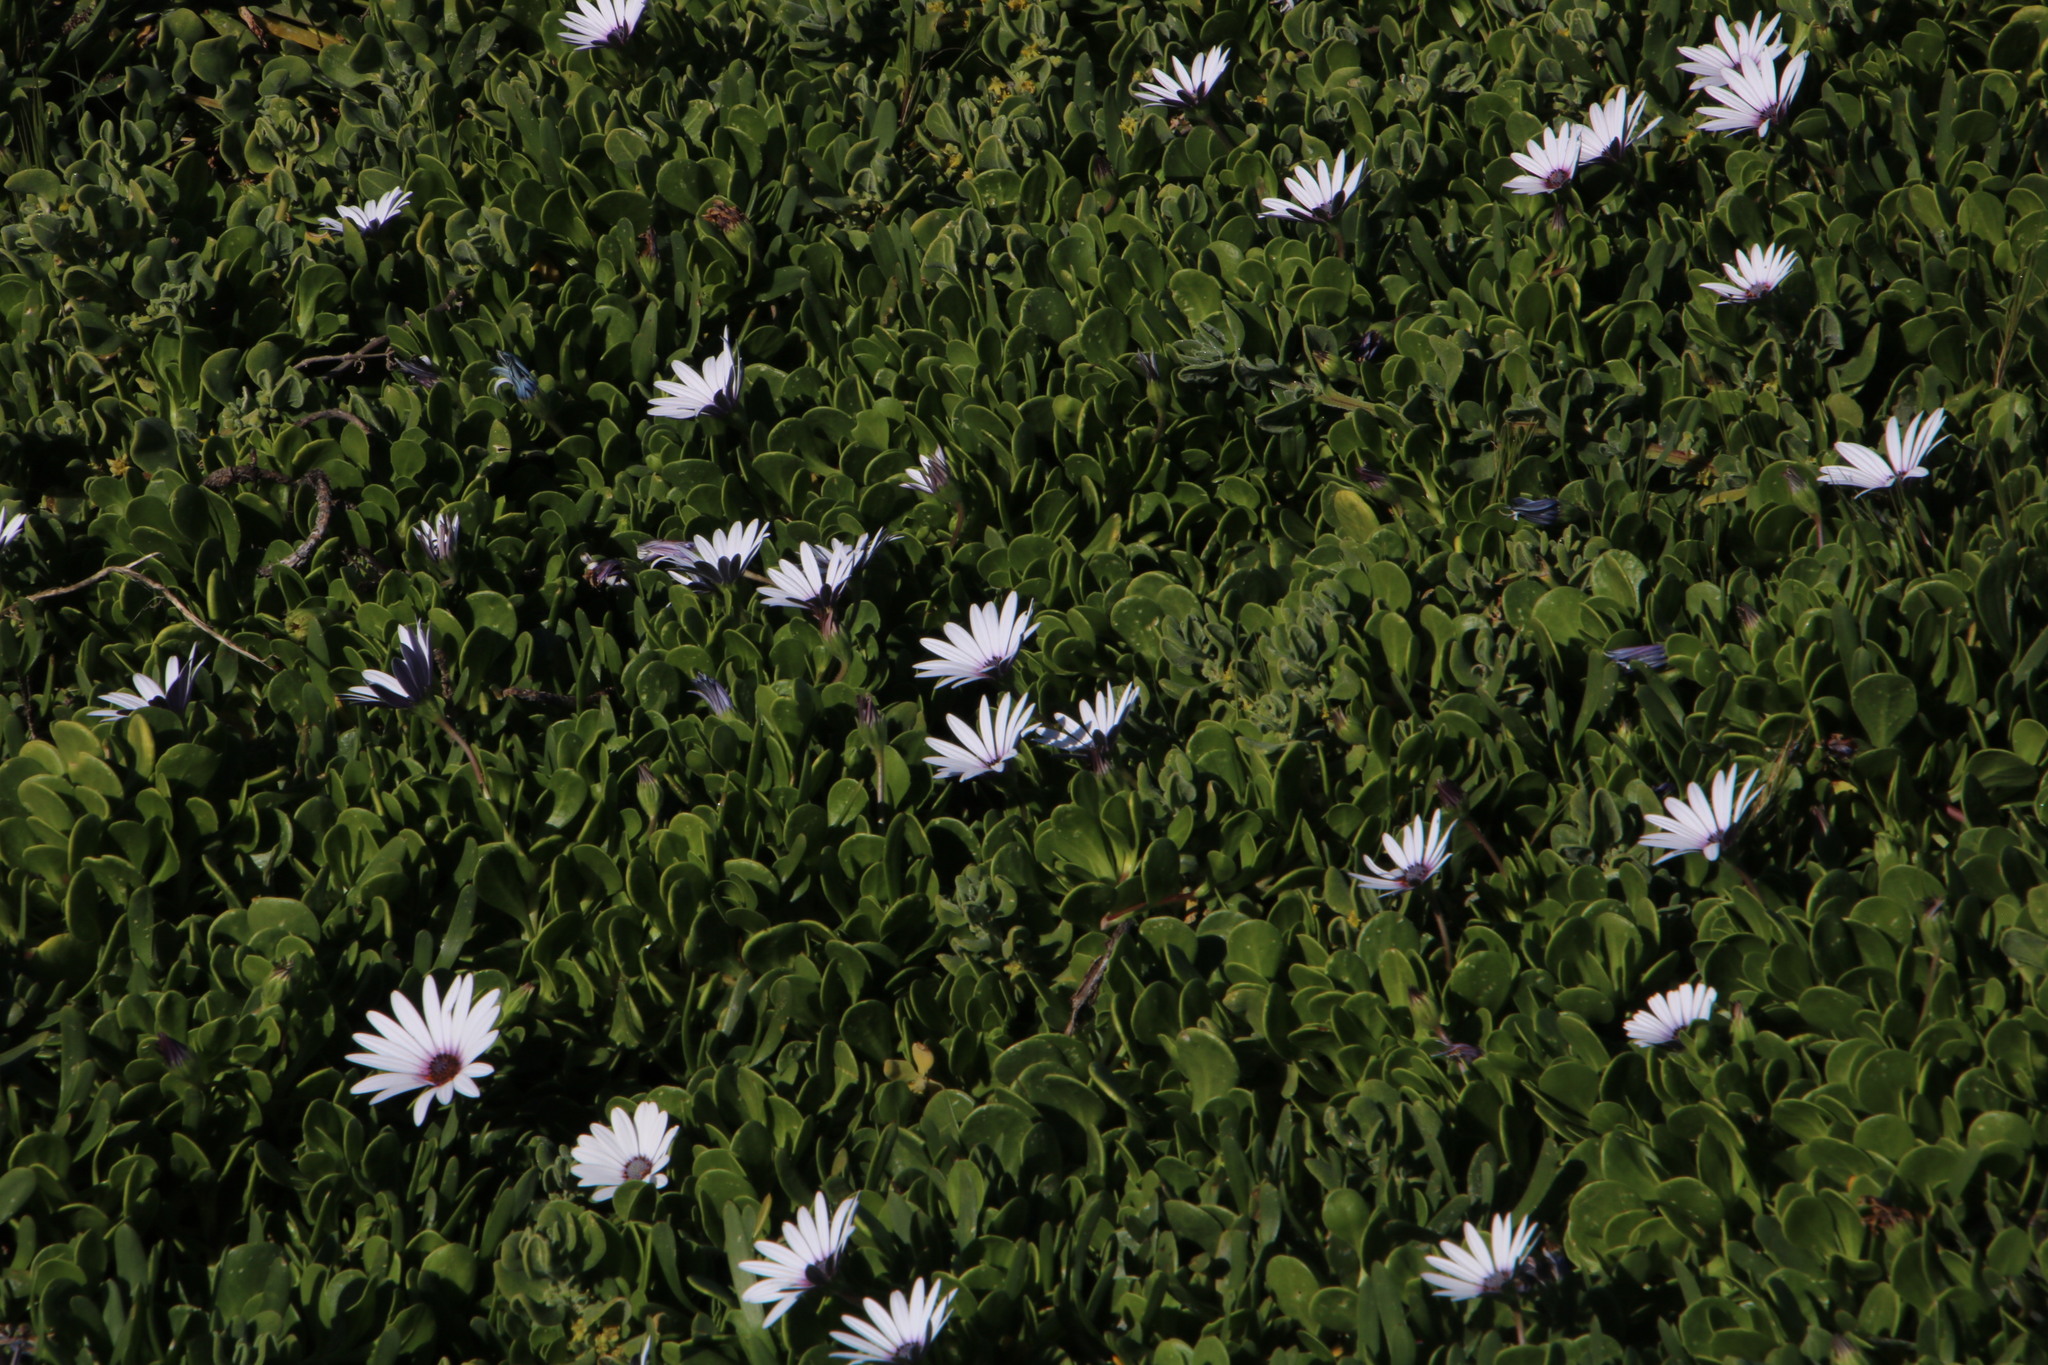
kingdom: Plantae
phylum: Tracheophyta
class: Magnoliopsida
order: Asterales
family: Asteraceae
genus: Dimorphotheca
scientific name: Dimorphotheca fruticosa
